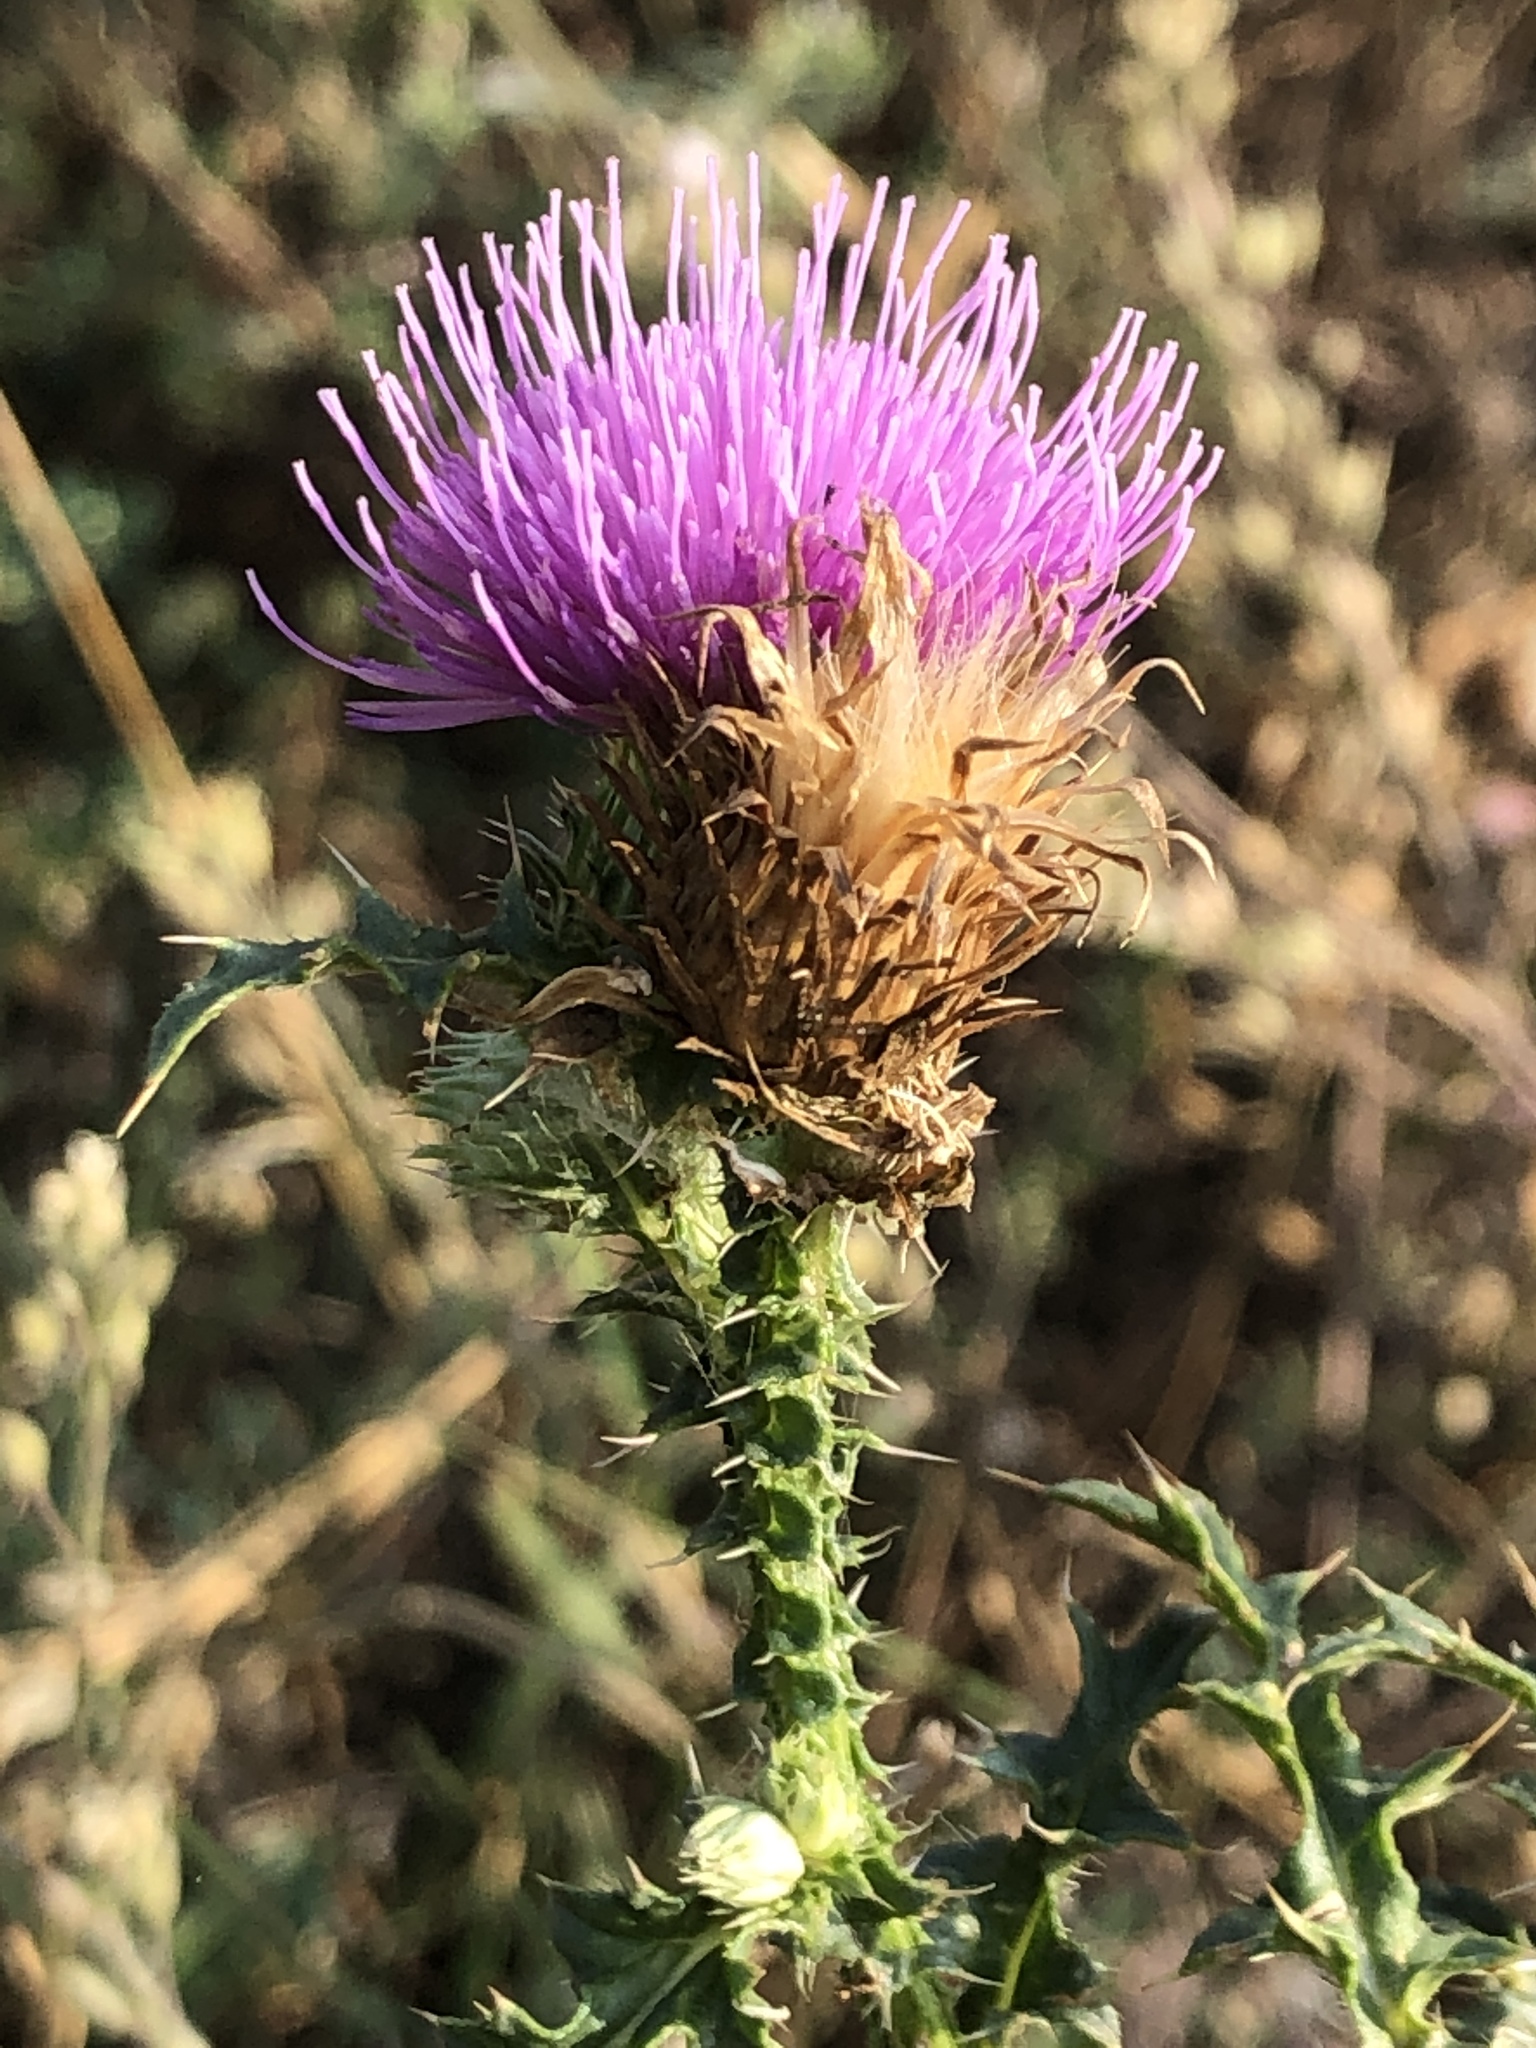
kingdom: Plantae
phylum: Tracheophyta
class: Magnoliopsida
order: Asterales
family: Asteraceae
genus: Carduus
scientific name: Carduus acanthoides
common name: Plumeless thistle
